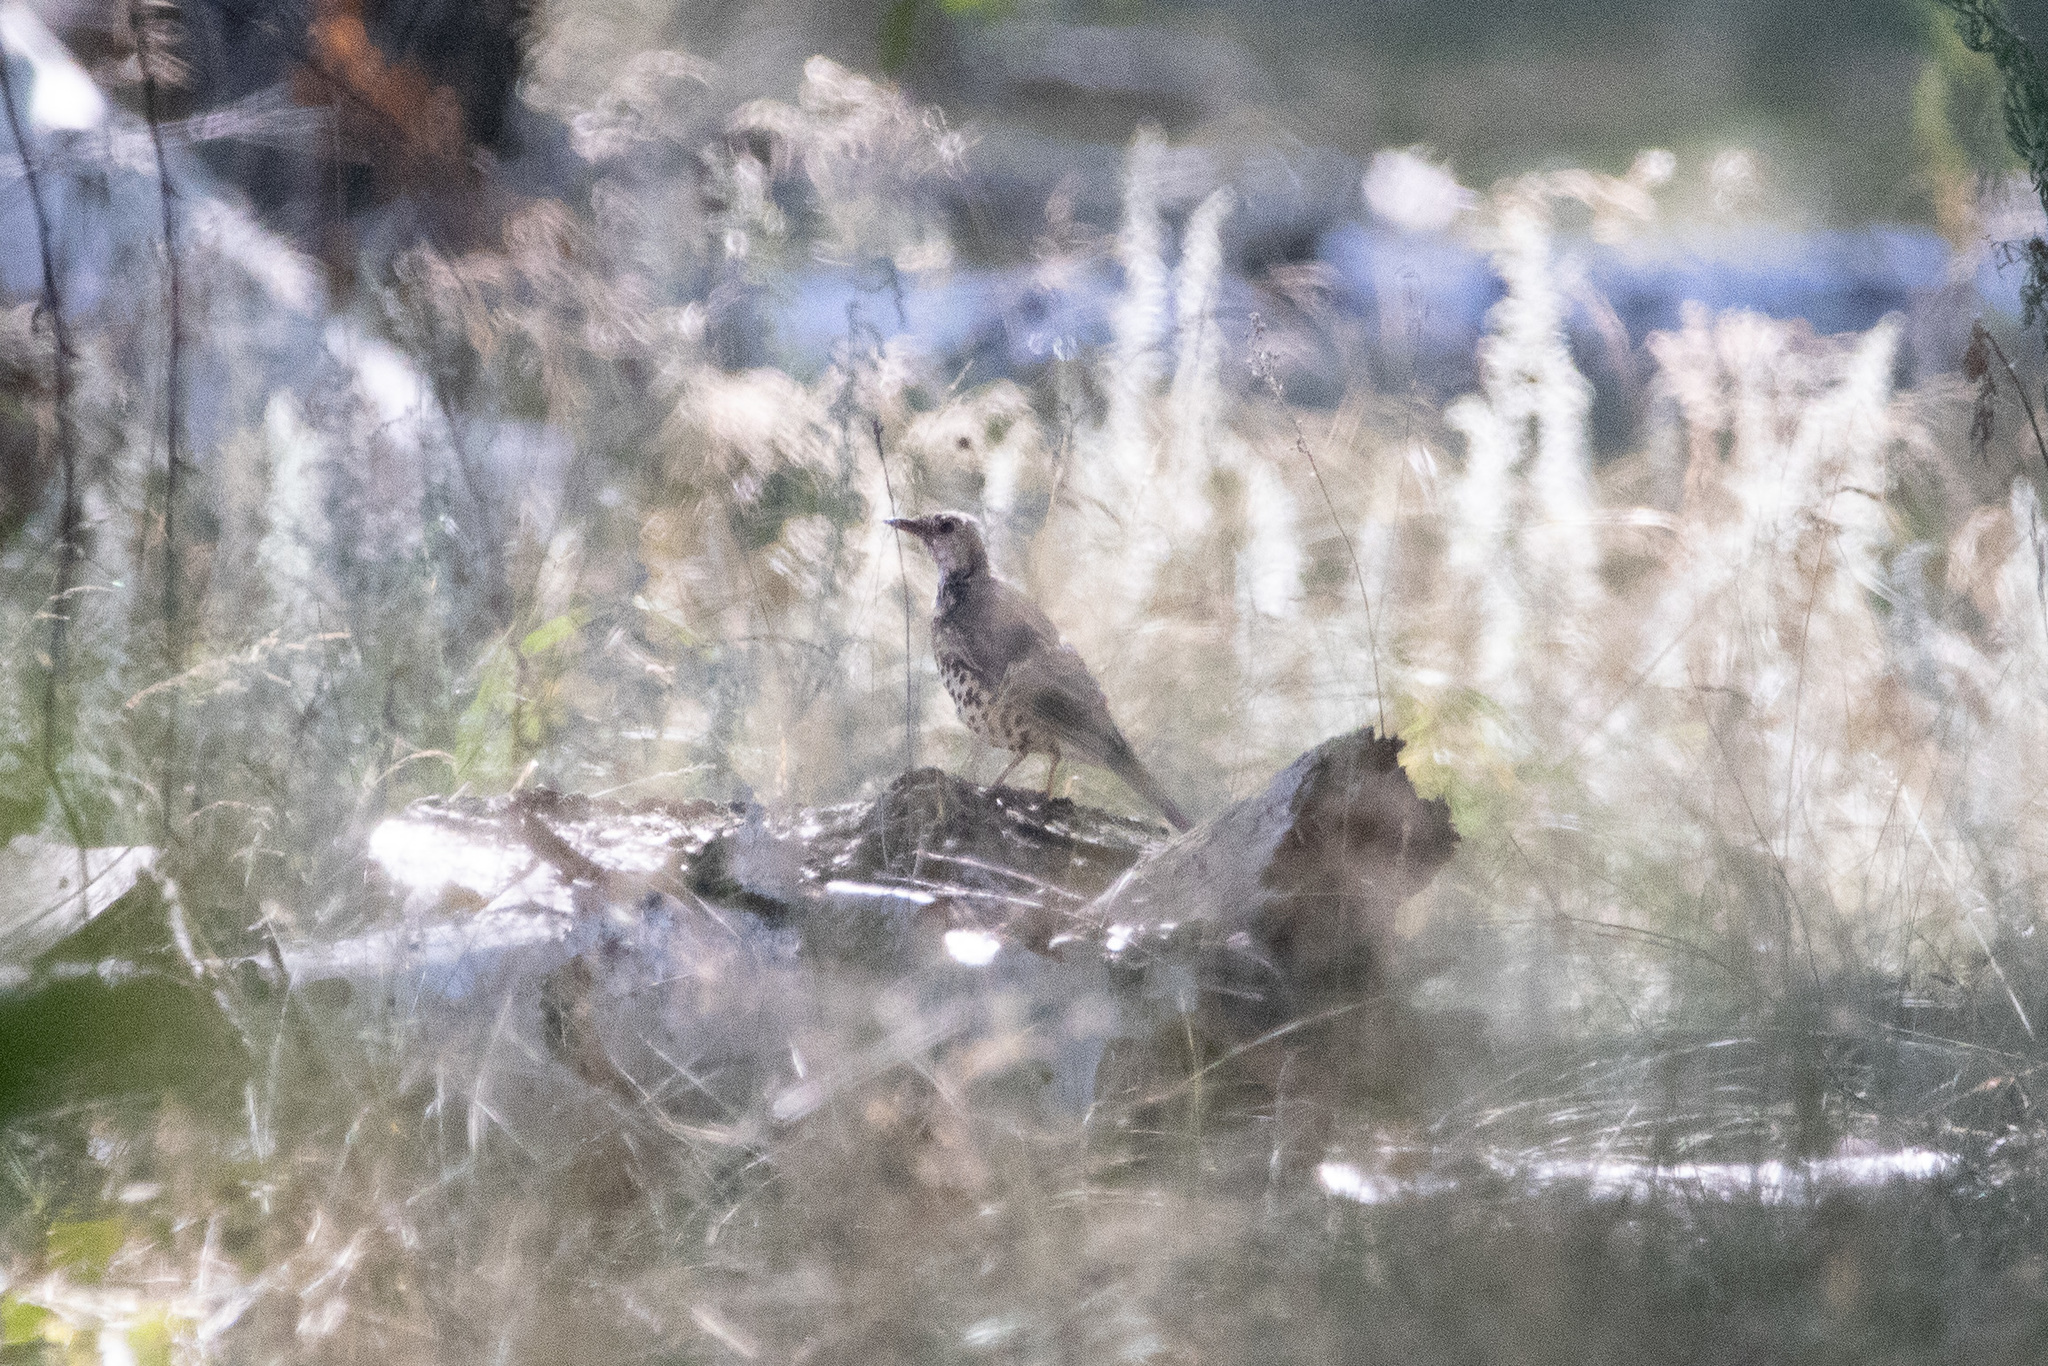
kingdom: Animalia
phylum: Chordata
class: Aves
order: Passeriformes
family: Turdidae
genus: Turdus
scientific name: Turdus viscivorus
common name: Mistle thrush
